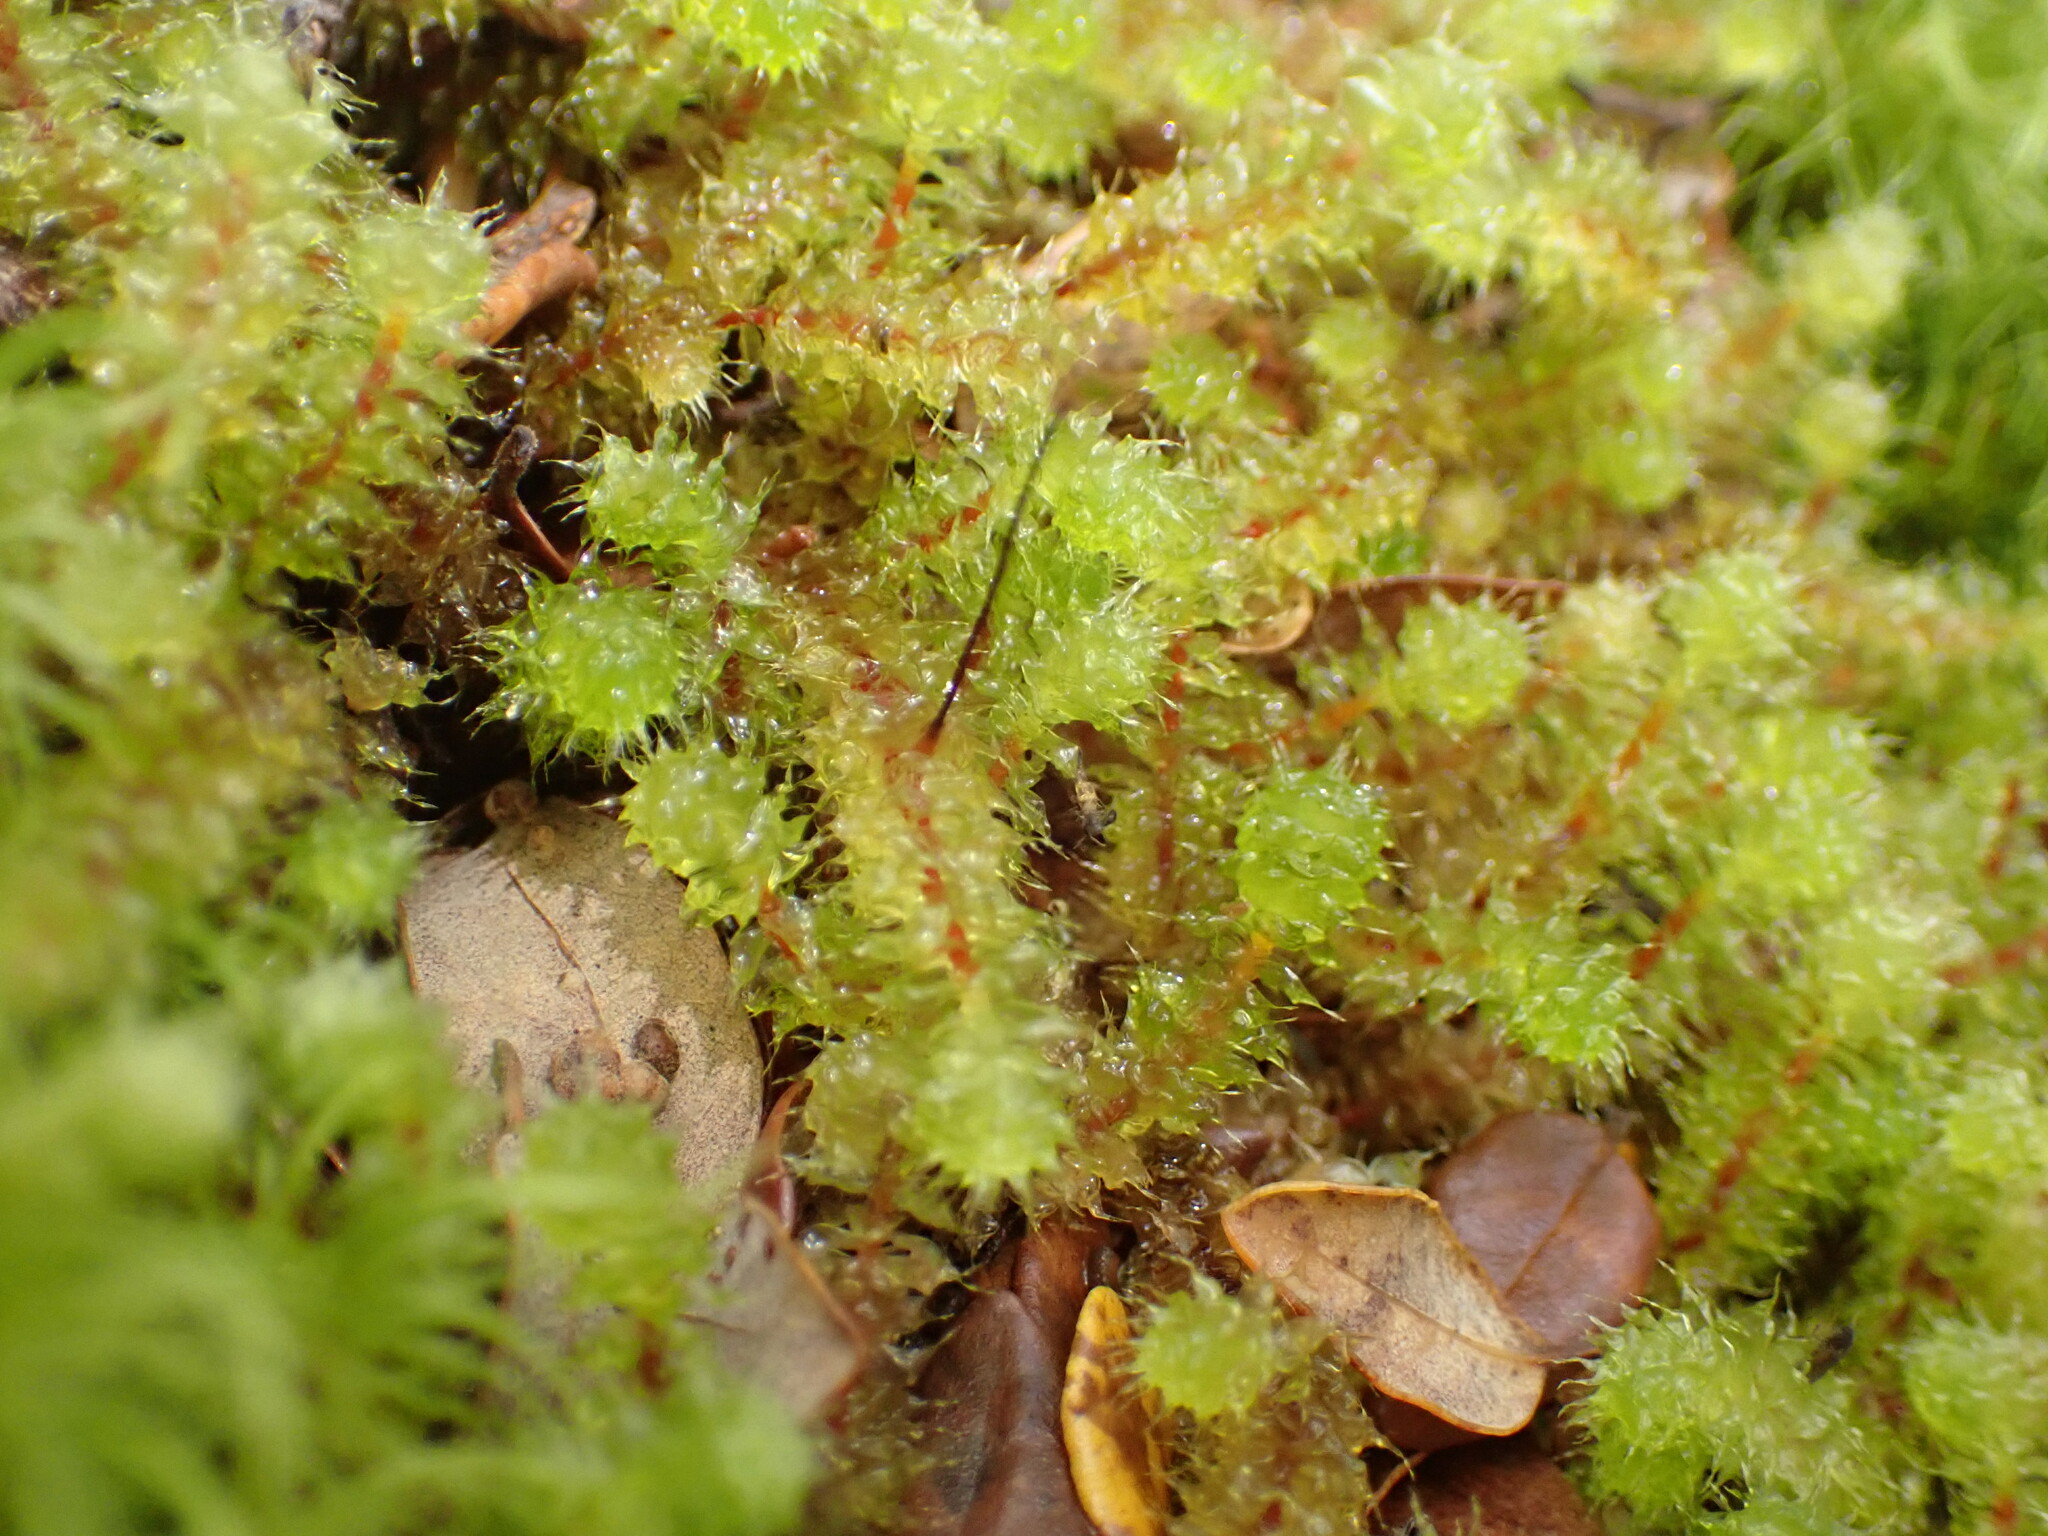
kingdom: Plantae
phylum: Bryophyta
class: Bryopsida
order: Ptychomniales
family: Ptychomniaceae
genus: Ptychomnion
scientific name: Ptychomnion aciculare
